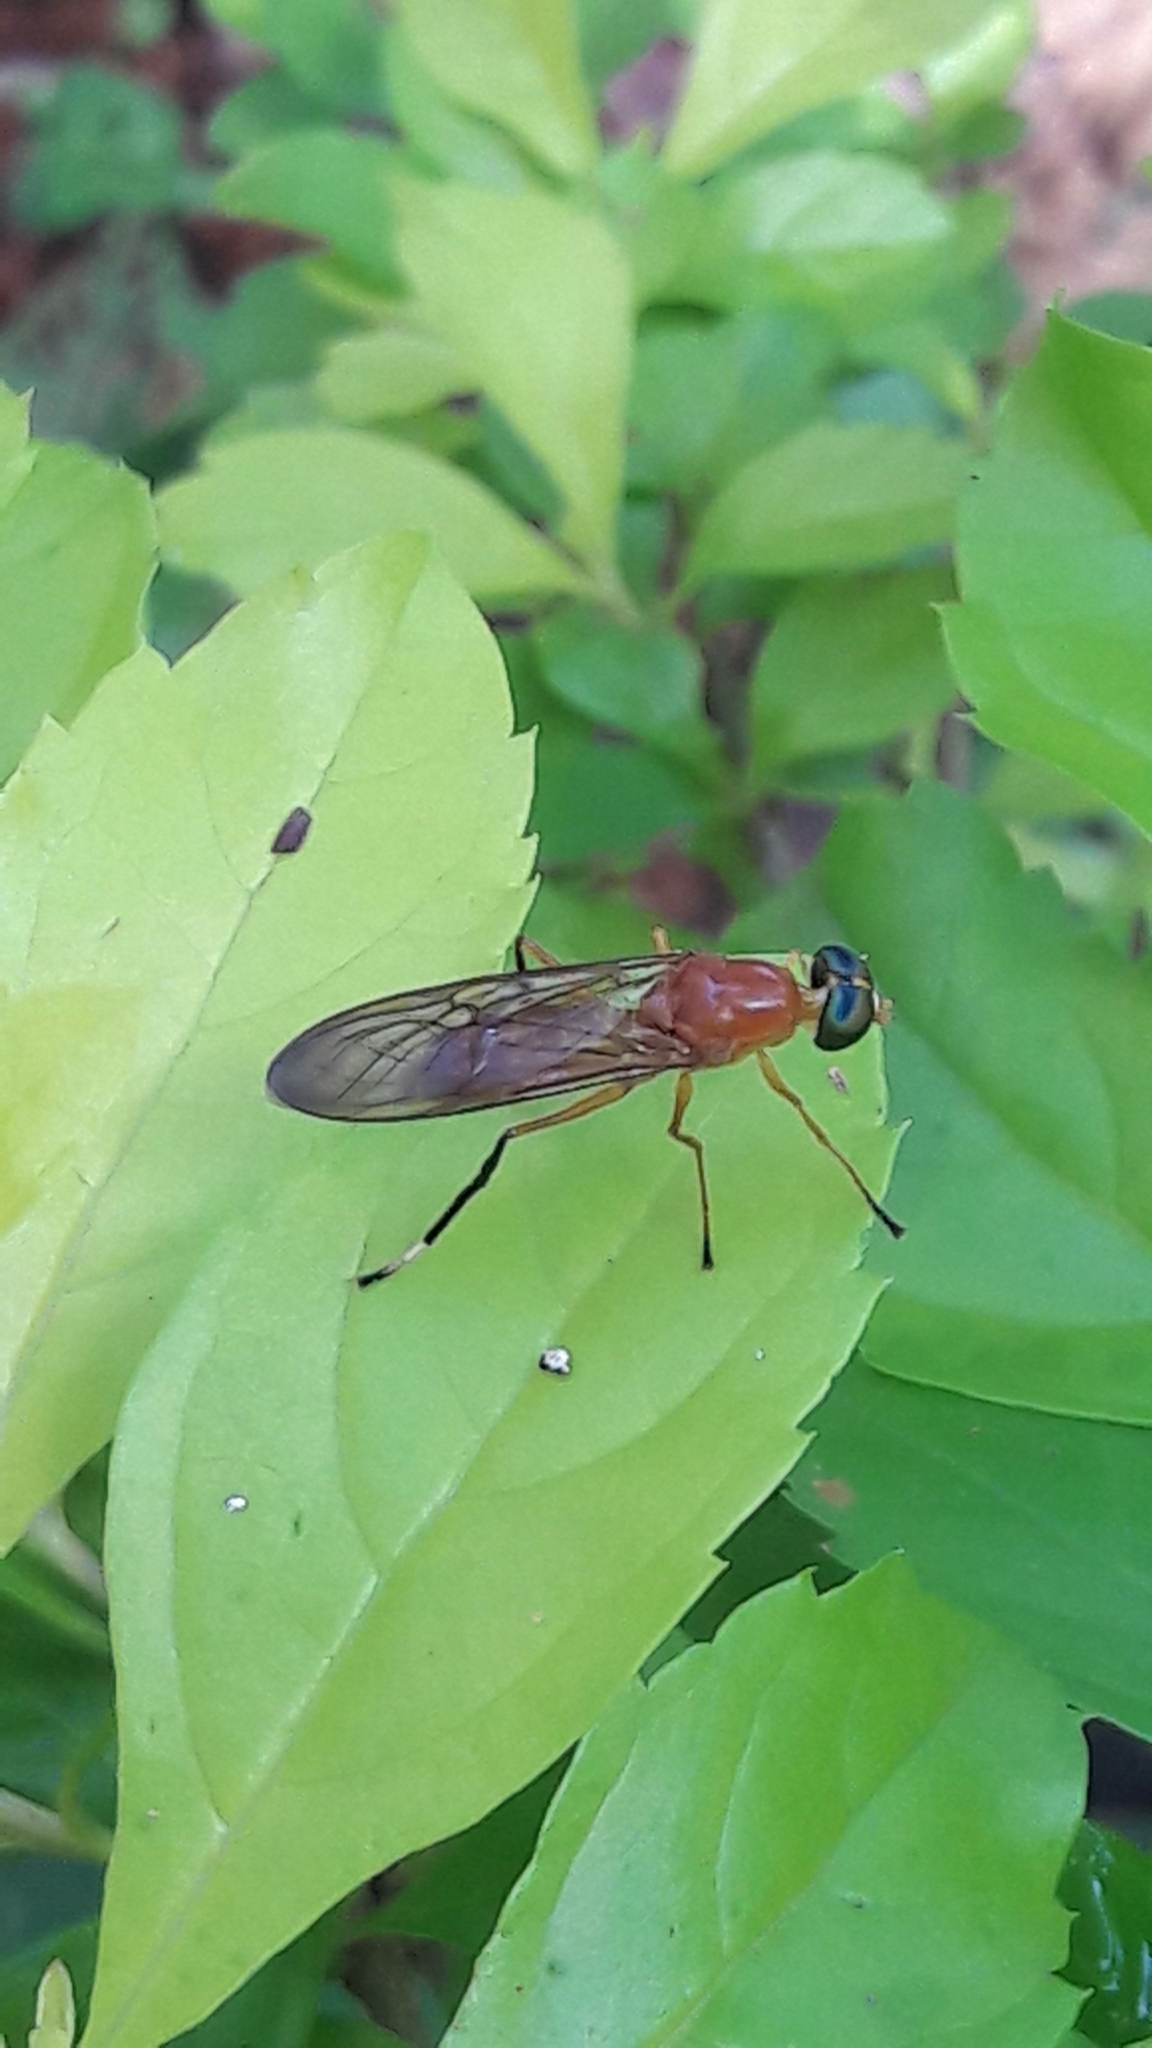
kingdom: Animalia
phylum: Arthropoda
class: Insecta
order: Diptera
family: Stratiomyidae
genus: Ptecticus
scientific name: Ptecticus testaceus
